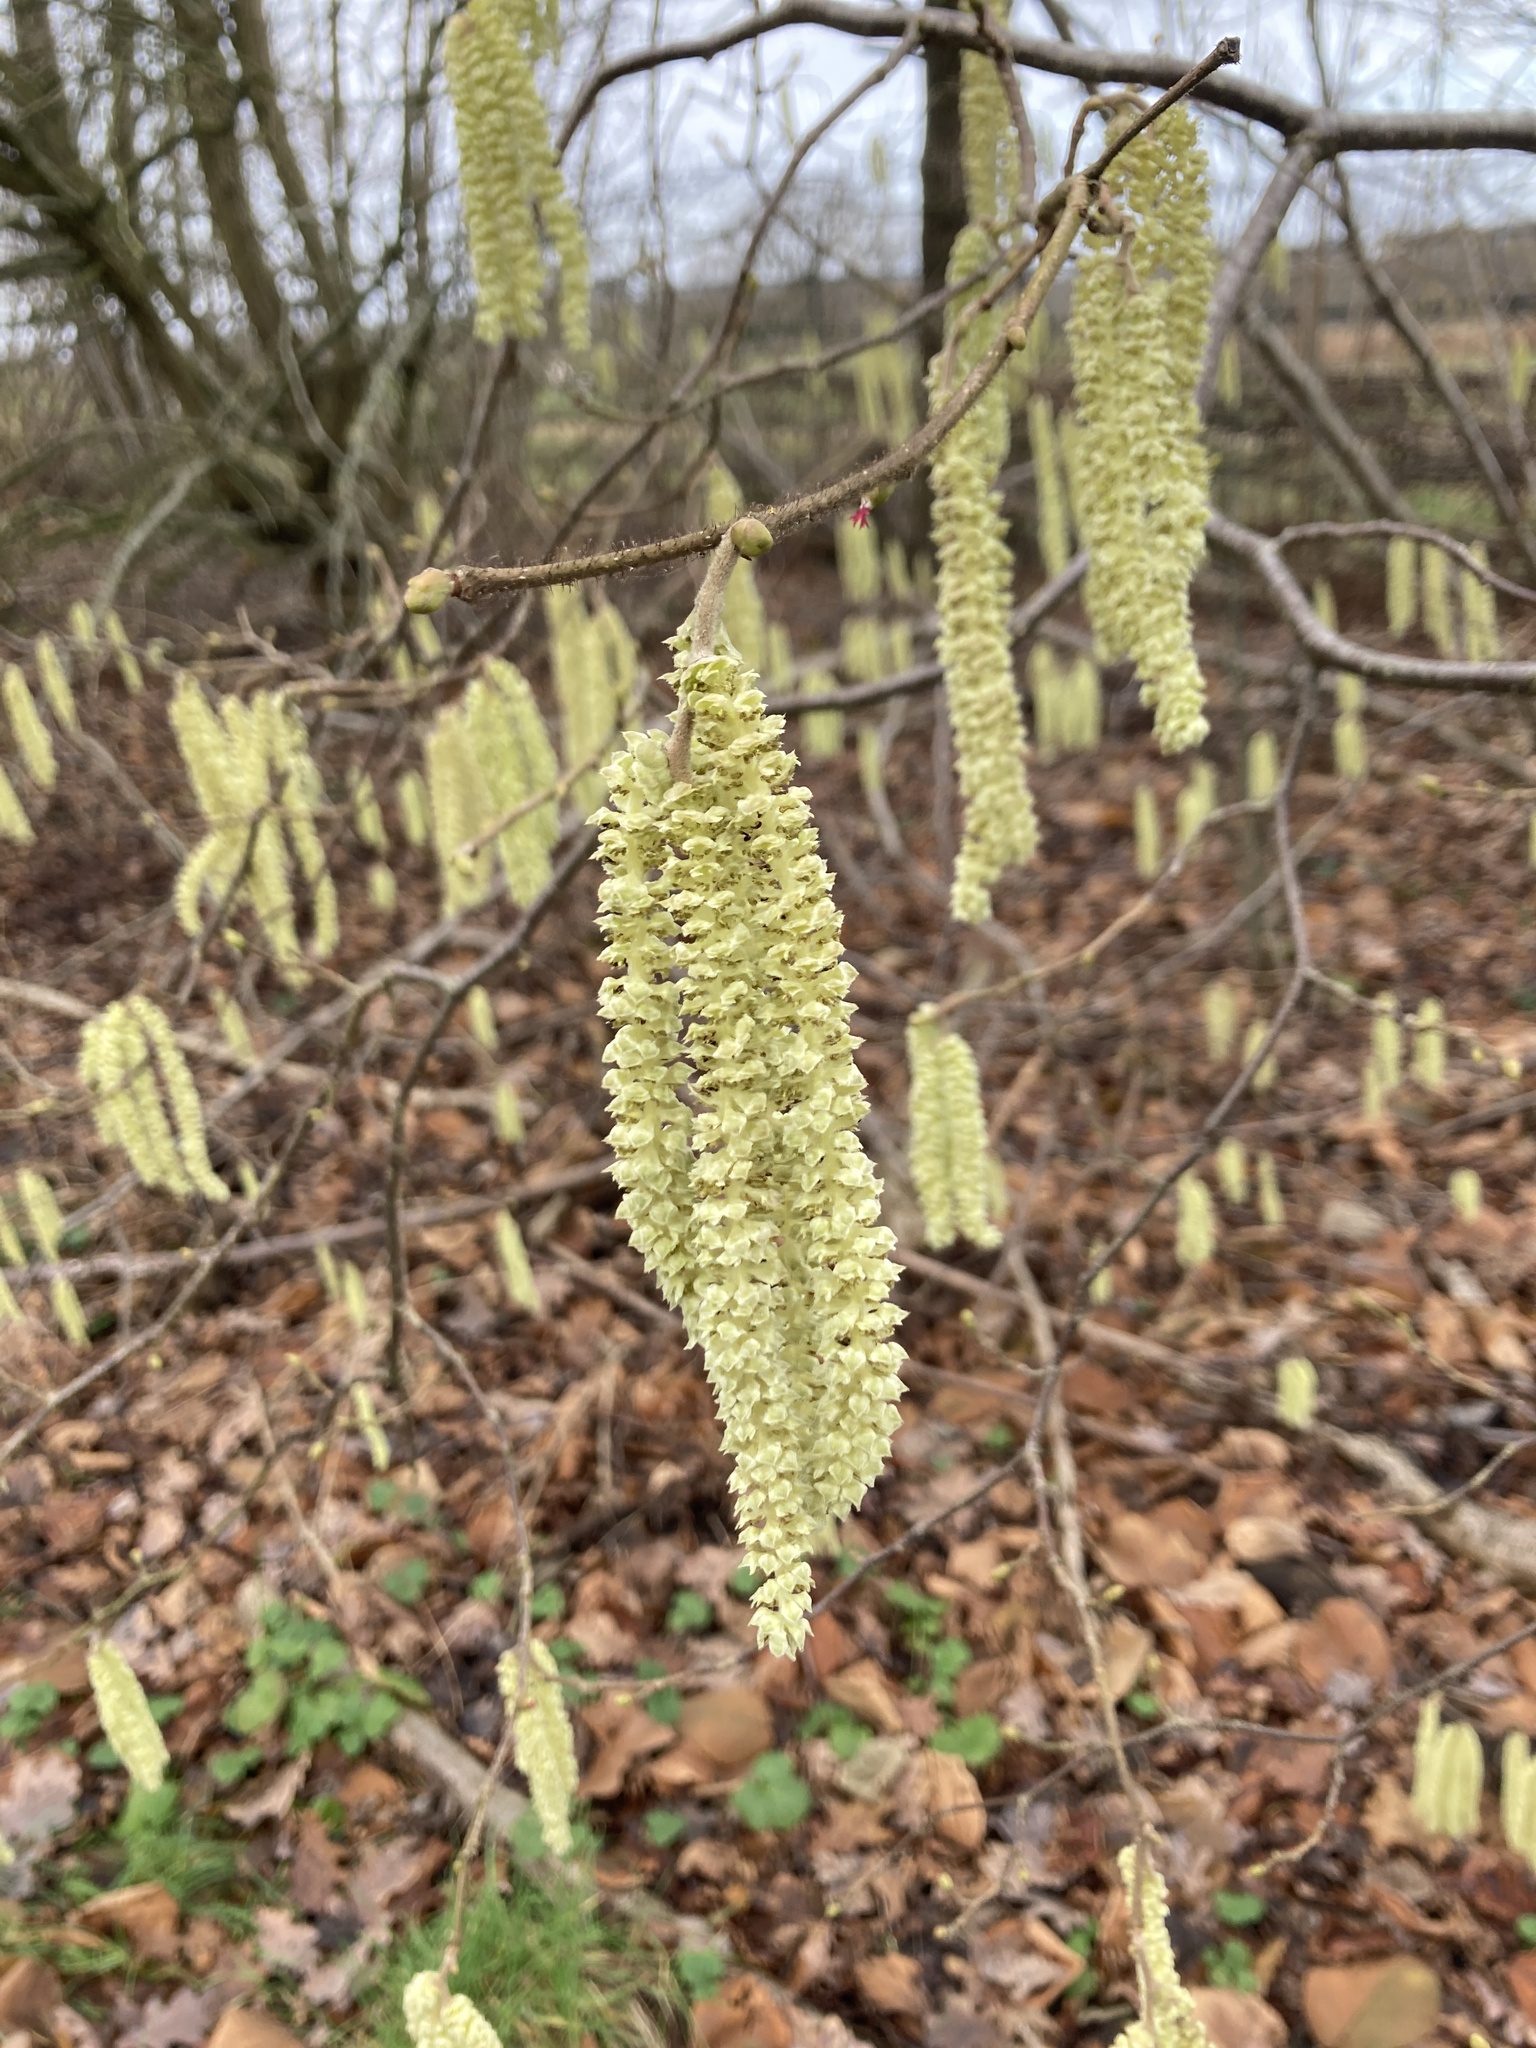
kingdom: Plantae
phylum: Tracheophyta
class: Magnoliopsida
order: Fagales
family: Betulaceae
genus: Corylus
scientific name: Corylus avellana
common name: European hazel
